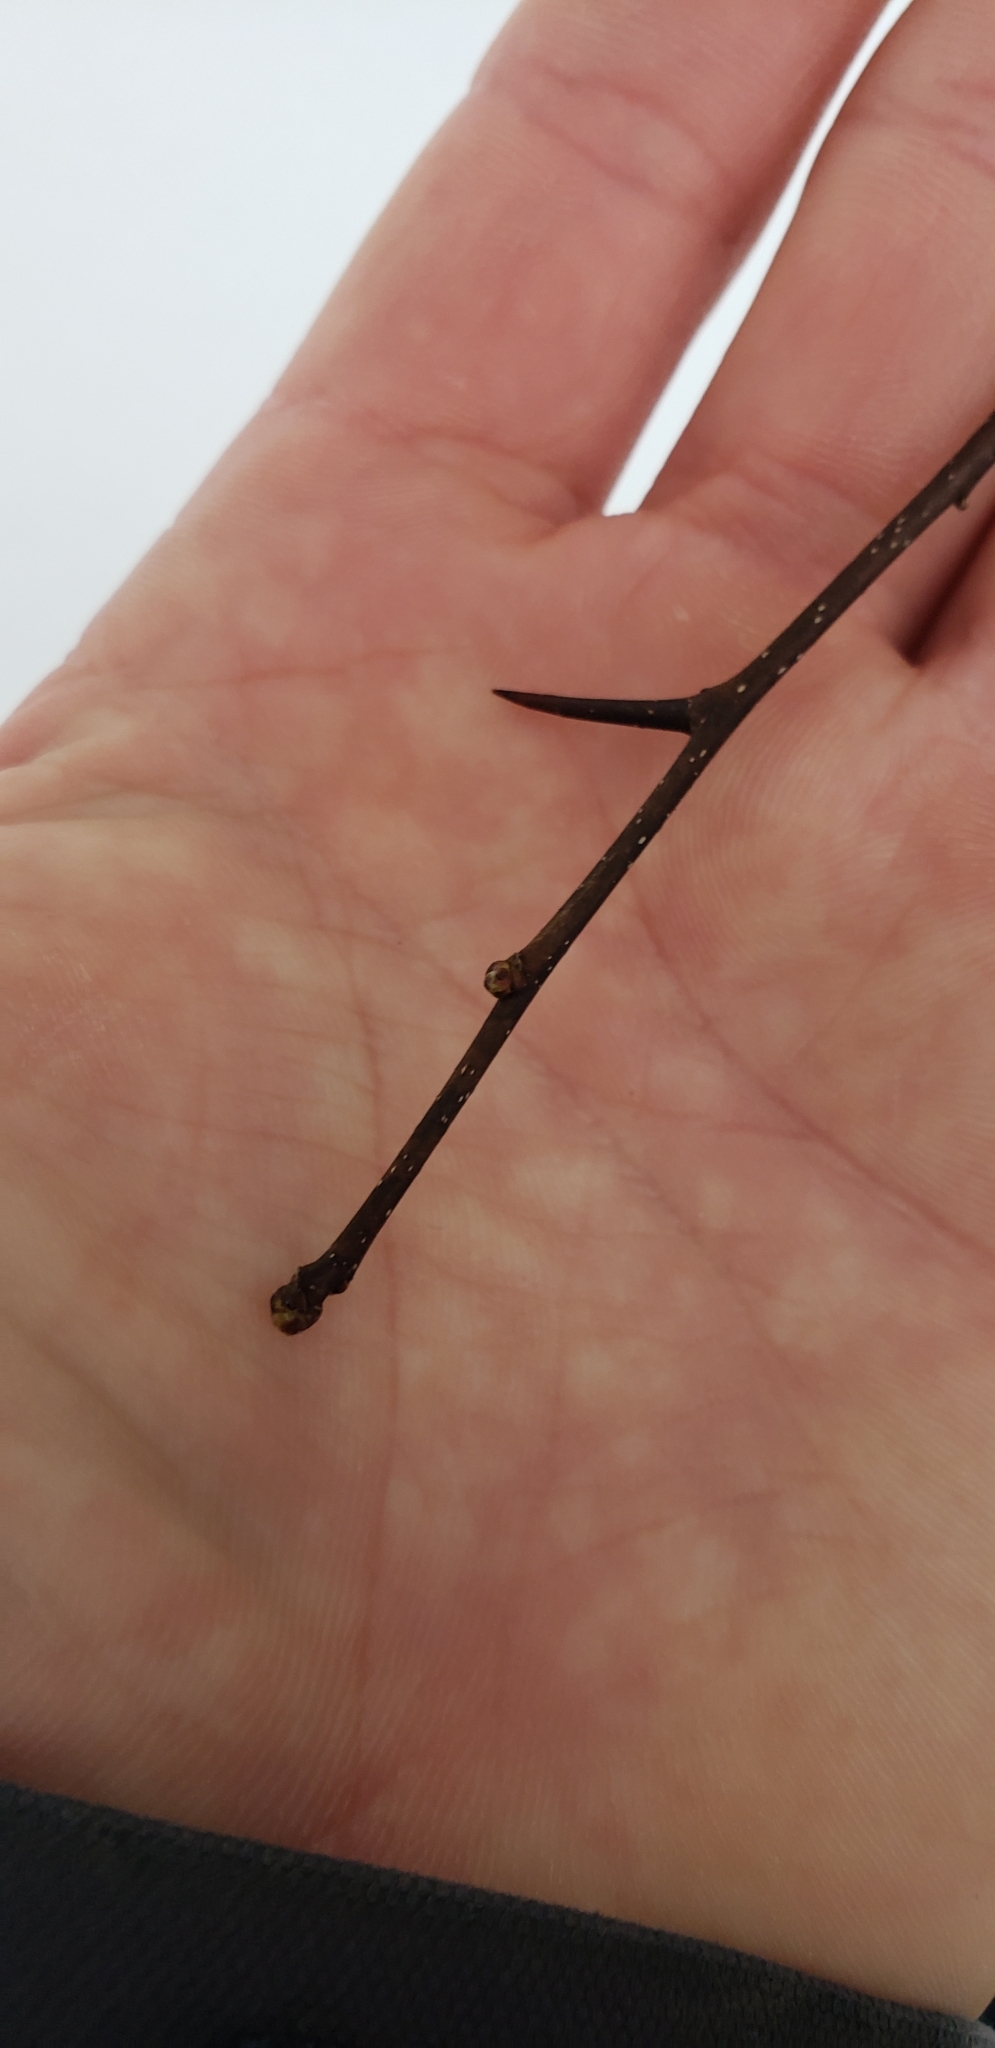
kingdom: Plantae
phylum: Tracheophyta
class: Magnoliopsida
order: Rosales
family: Rosaceae
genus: Crataegus
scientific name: Crataegus
